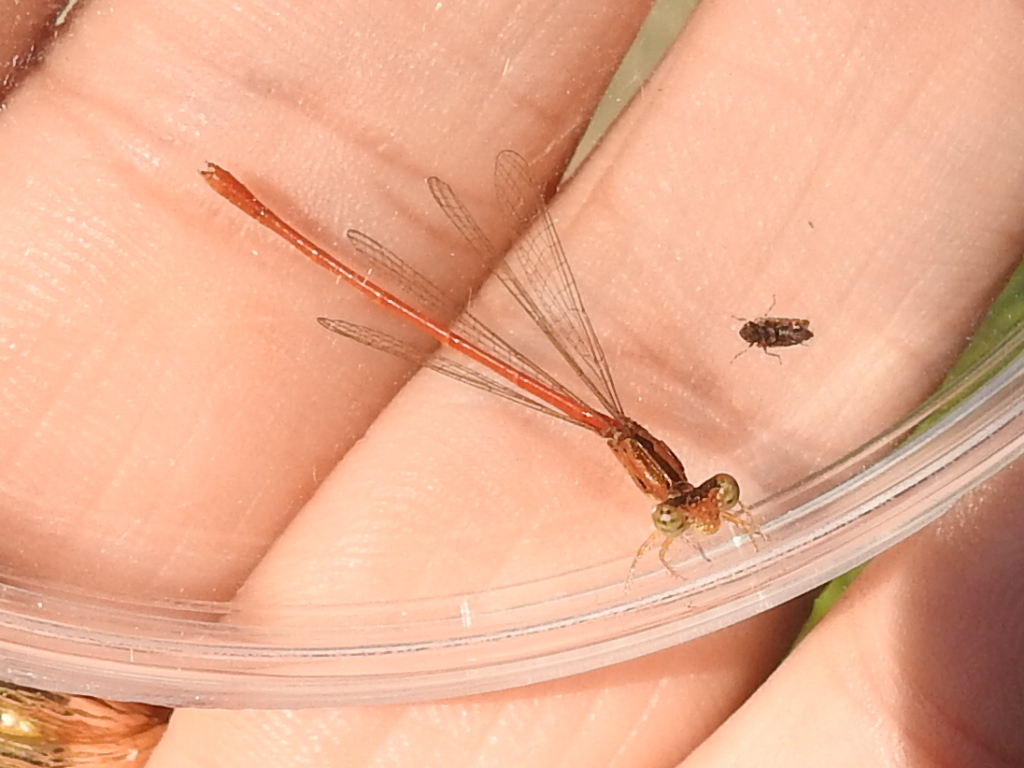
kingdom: Animalia
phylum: Arthropoda
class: Insecta
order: Odonata
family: Coenagrionidae
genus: Telebasis
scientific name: Telebasis salva
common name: Desert firetail
